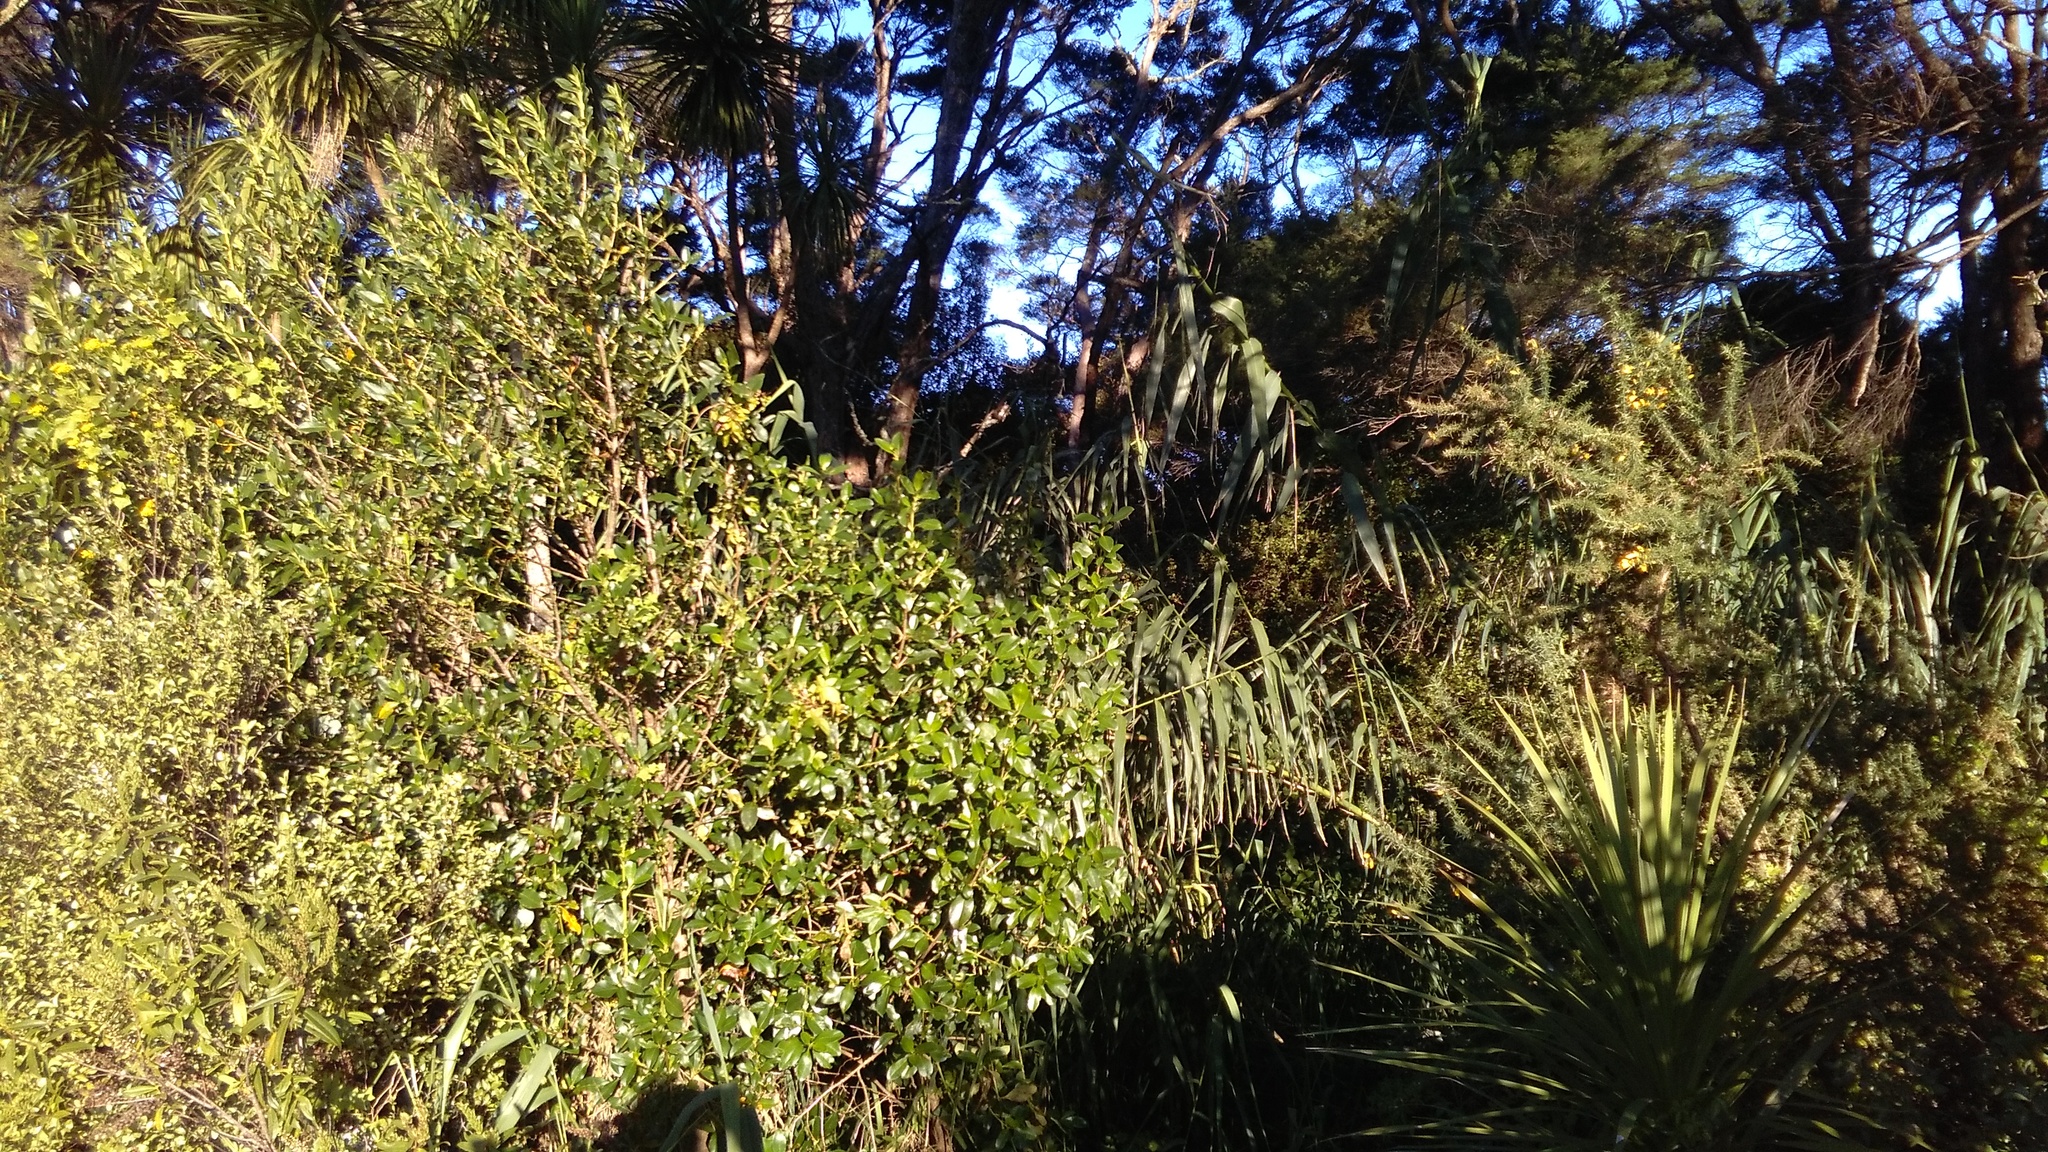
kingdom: Plantae
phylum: Tracheophyta
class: Liliopsida
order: Poales
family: Poaceae
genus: Arundo
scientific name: Arundo donax
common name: Giant reed
